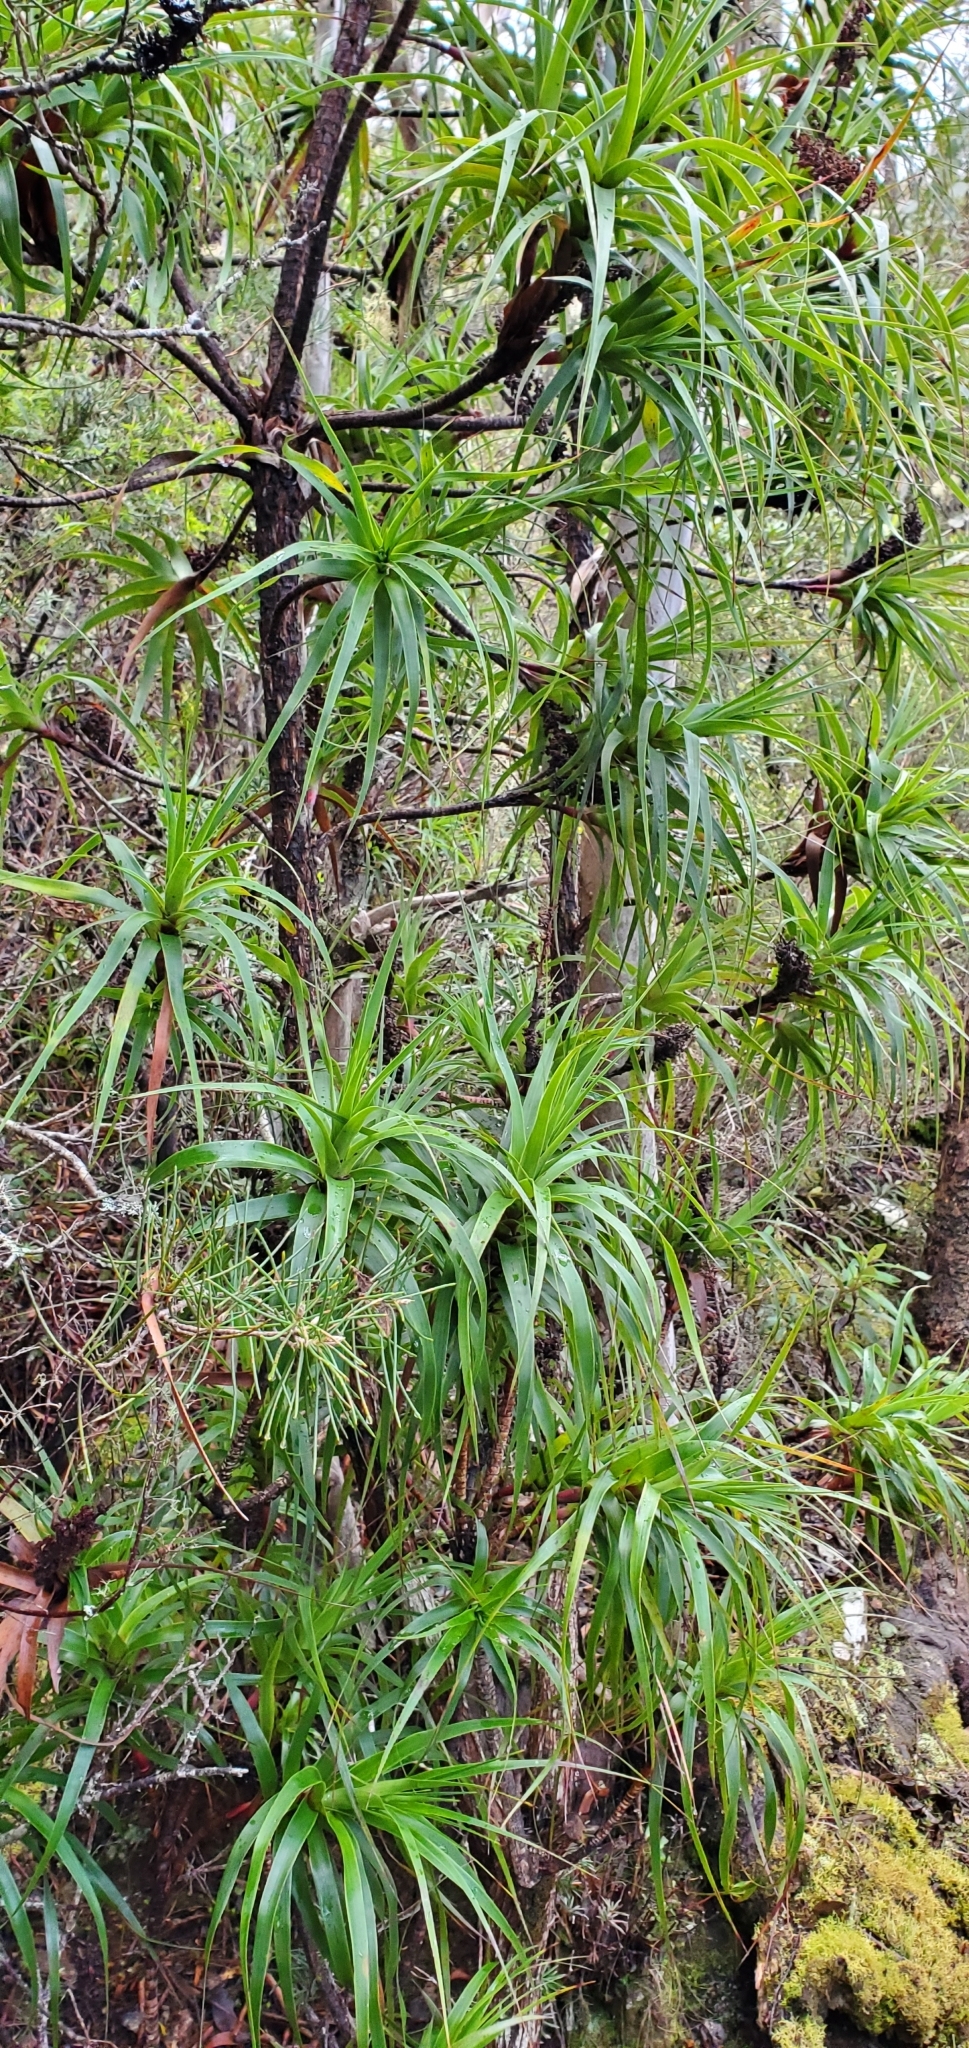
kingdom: Plantae
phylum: Tracheophyta
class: Magnoliopsida
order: Ericales
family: Ericaceae
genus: Dracophyllum
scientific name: Dracophyllum desgrazii
